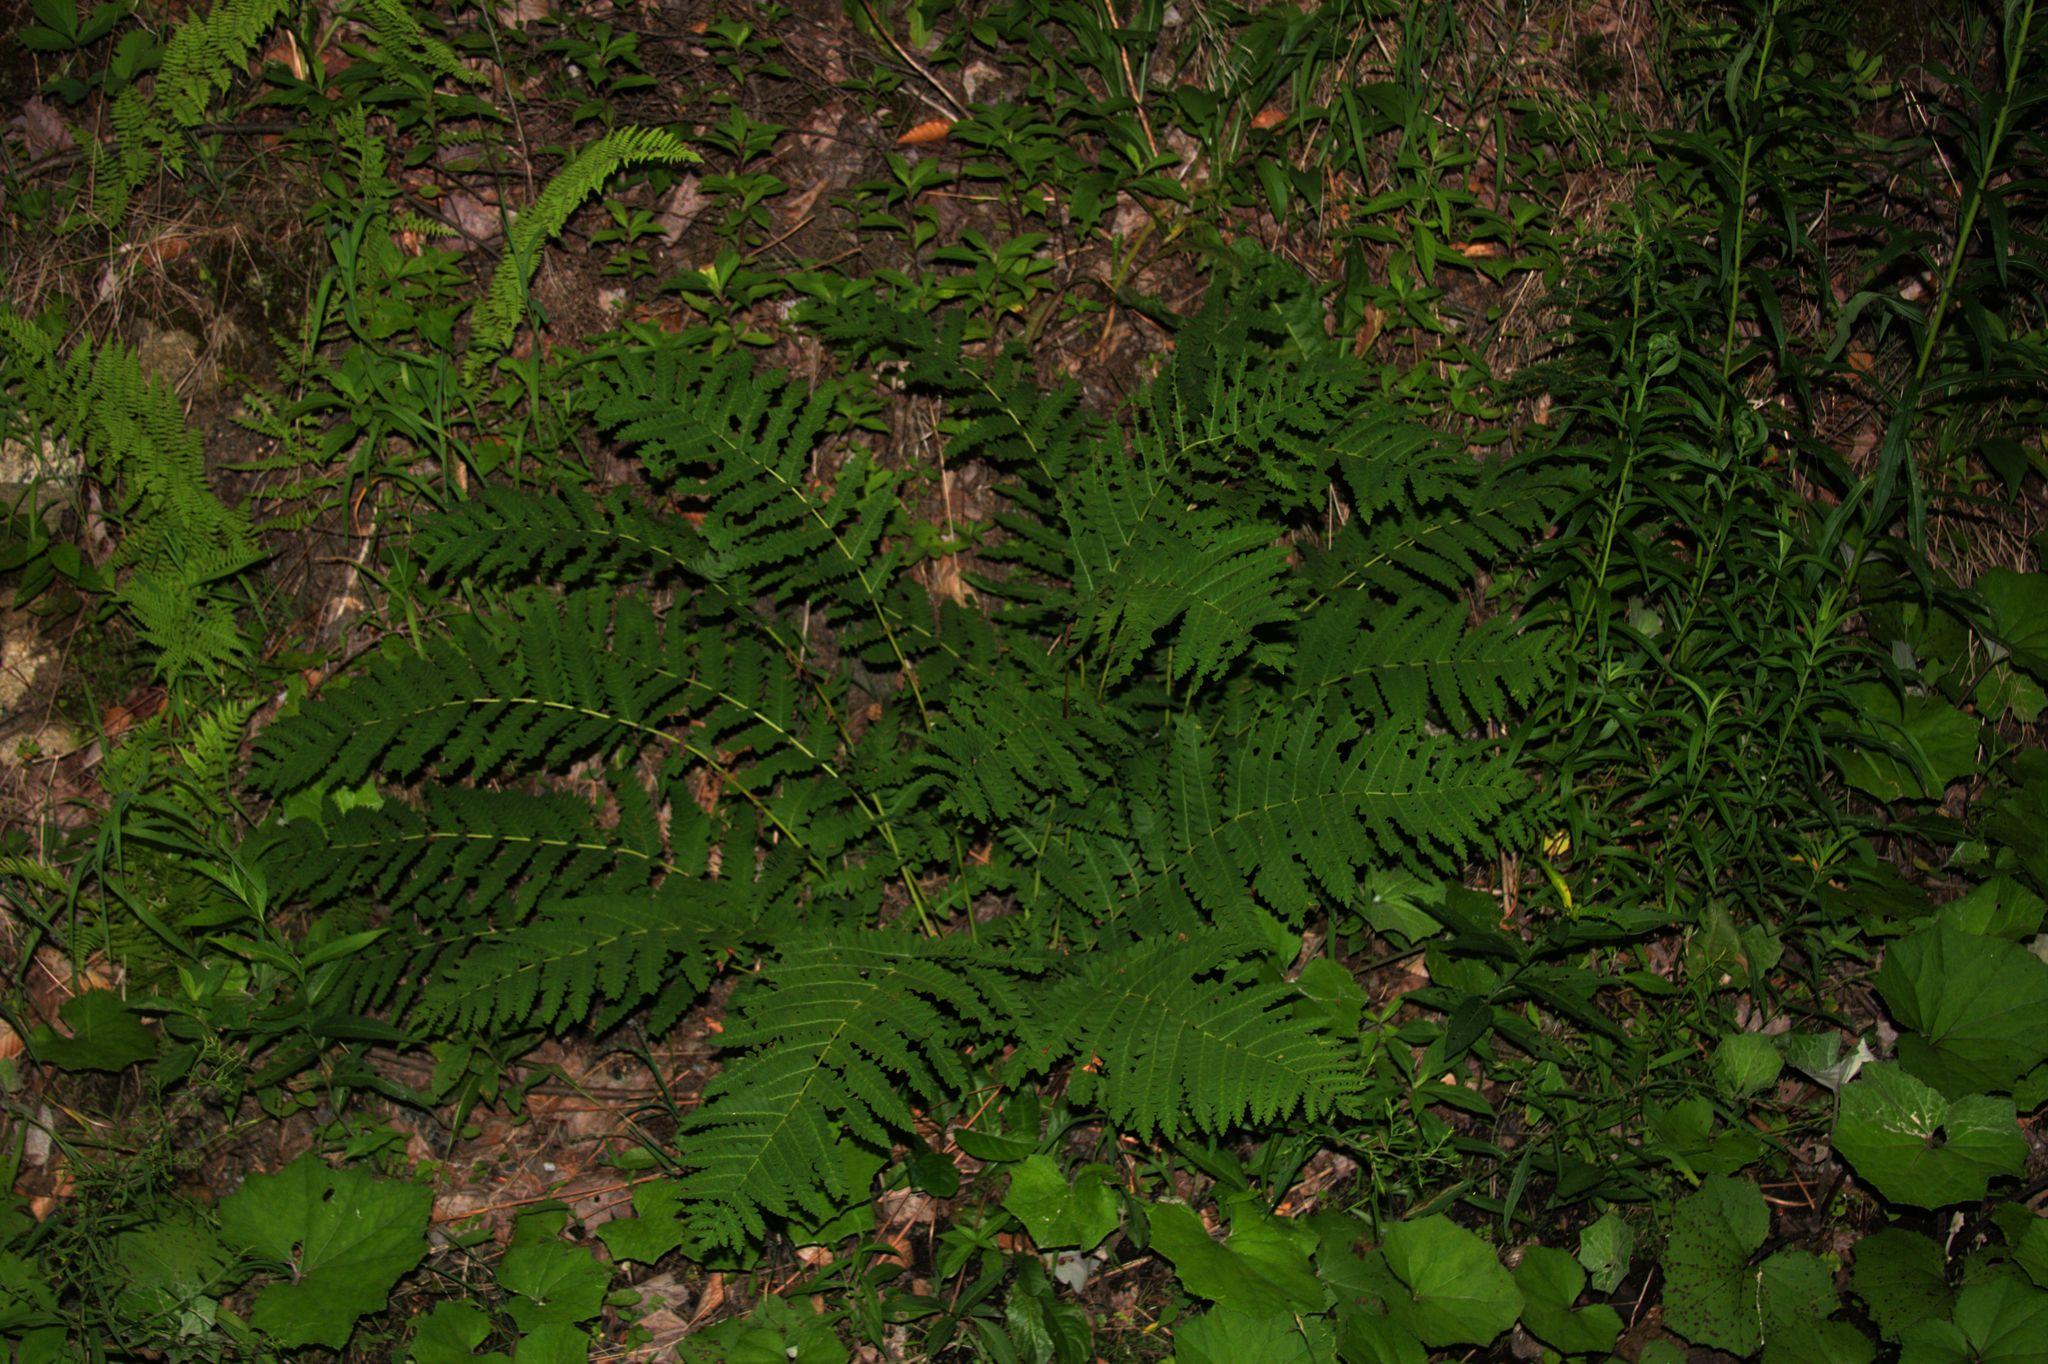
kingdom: Plantae
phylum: Tracheophyta
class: Polypodiopsida
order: Osmundales
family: Osmundaceae
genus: Claytosmunda
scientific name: Claytosmunda claytoniana
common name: Clayton's fern
